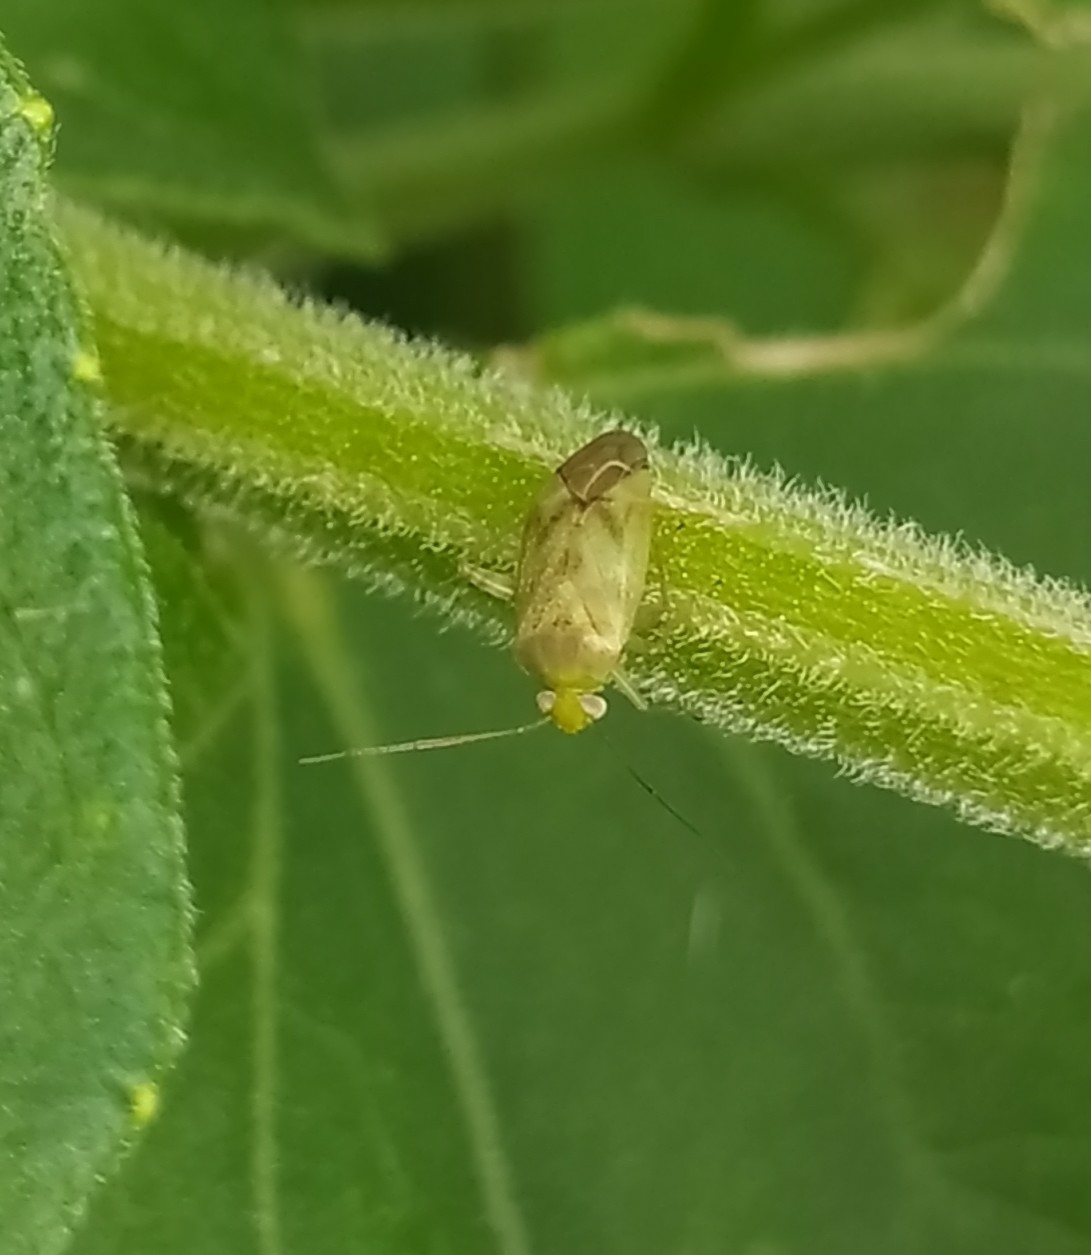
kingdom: Animalia
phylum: Arthropoda
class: Insecta
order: Hemiptera
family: Miridae
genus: Taylorilygus
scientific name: Taylorilygus apicalis
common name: Plant bug
